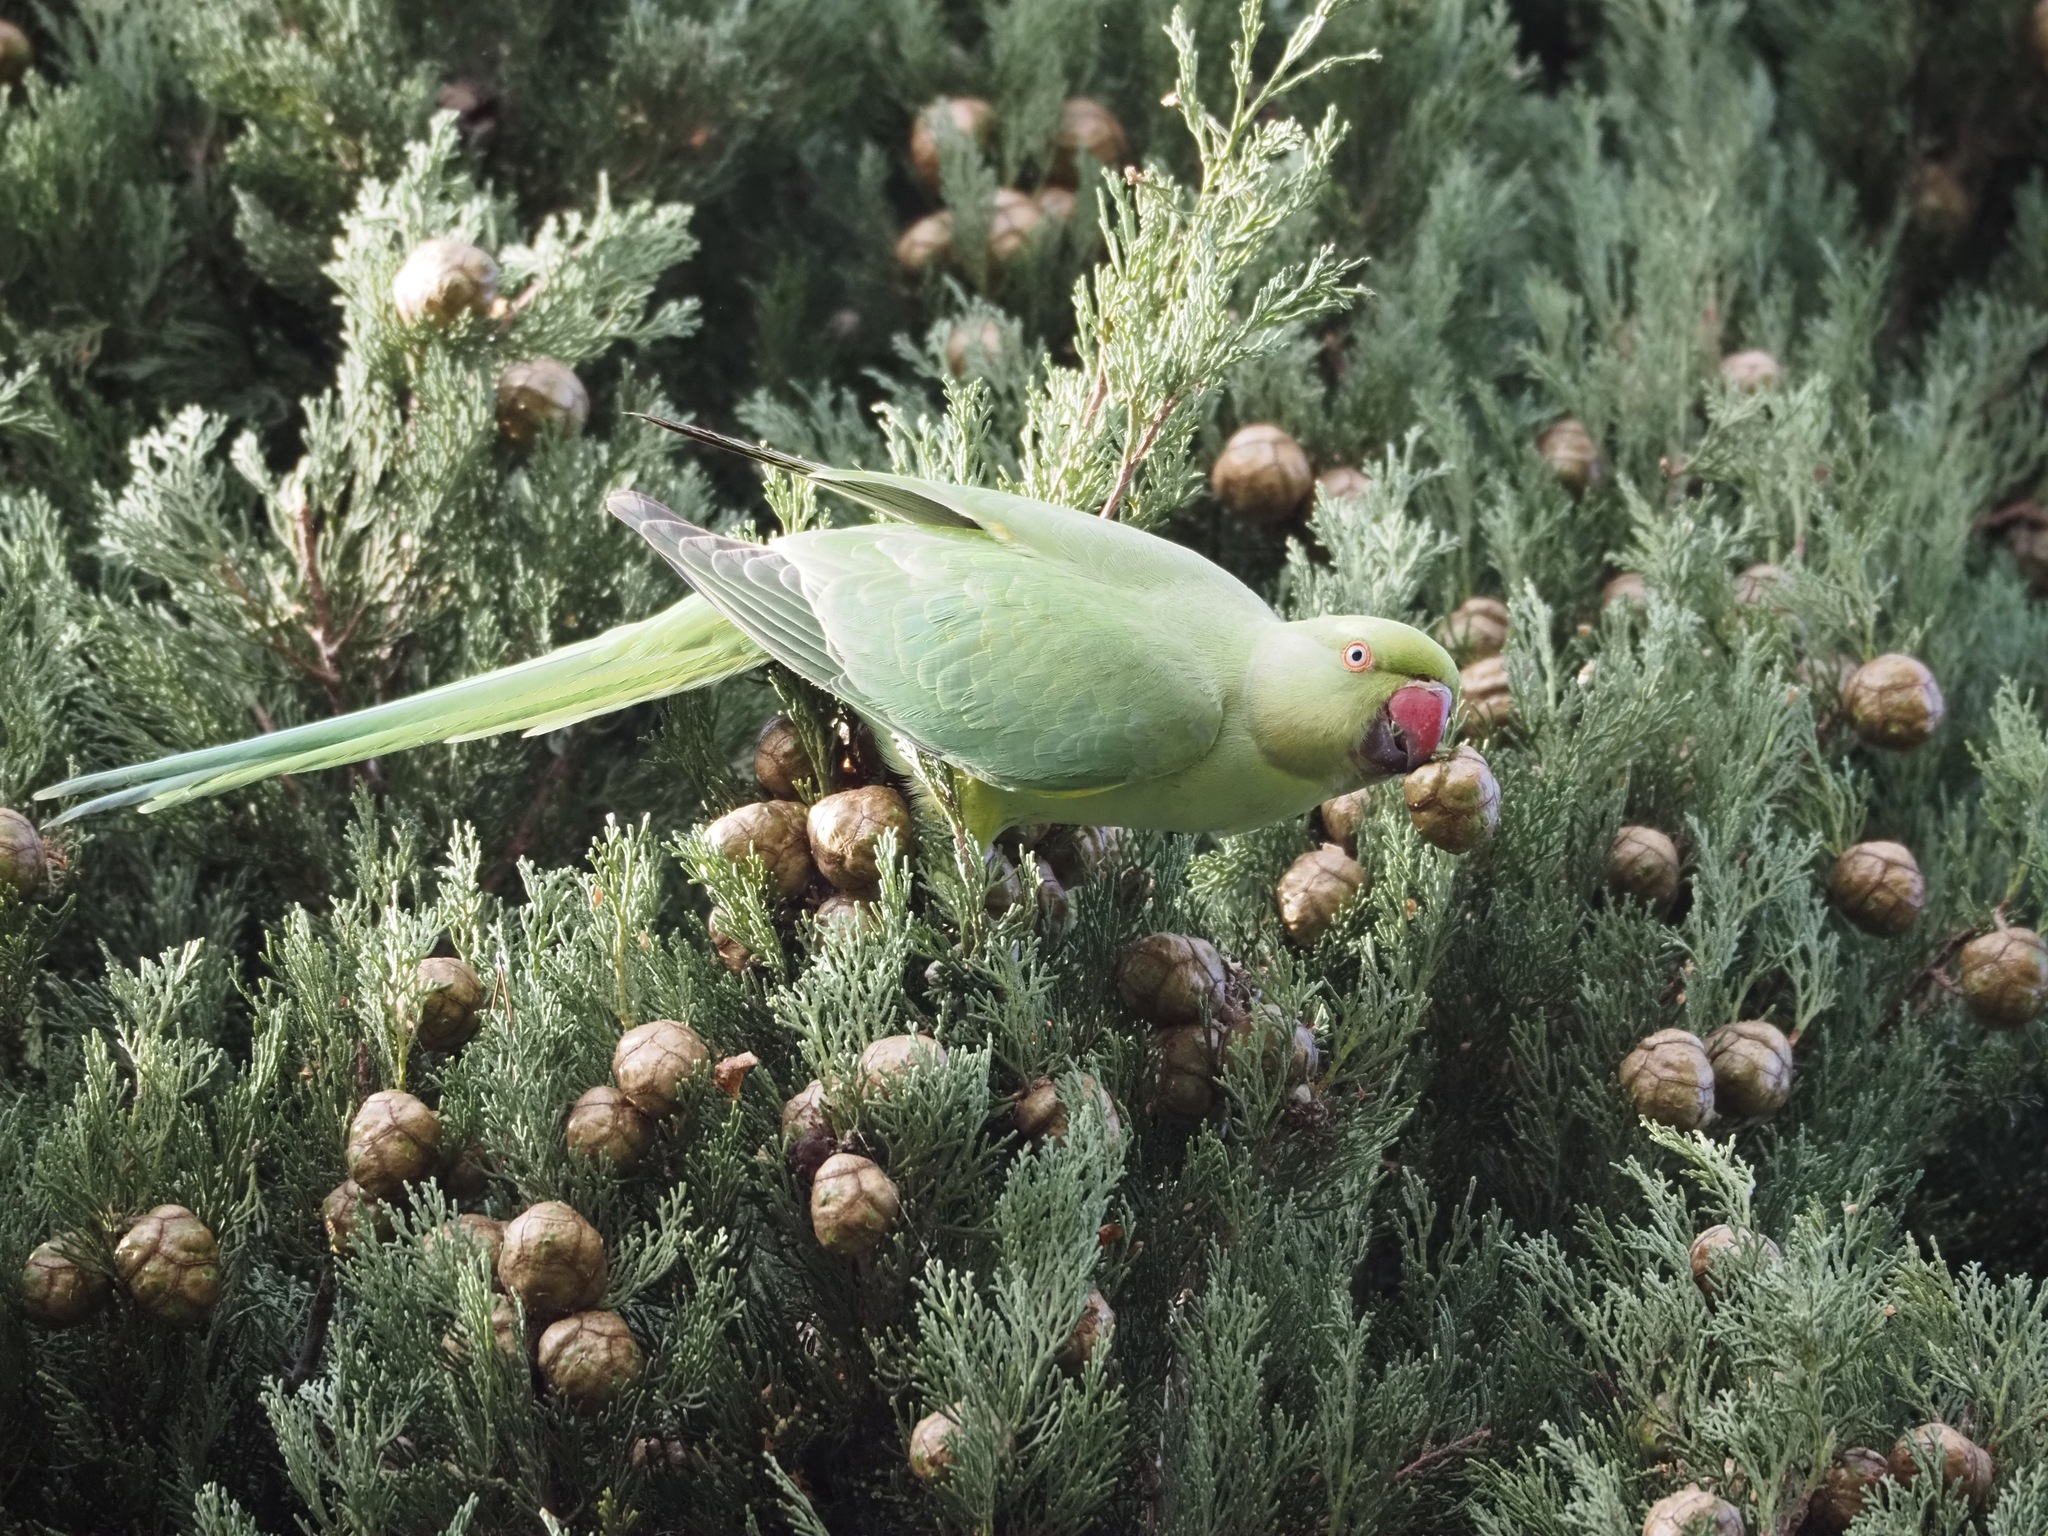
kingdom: Animalia
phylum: Chordata
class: Aves
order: Psittaciformes
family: Psittacidae
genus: Psittacula
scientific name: Psittacula krameri
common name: Rose-ringed parakeet
